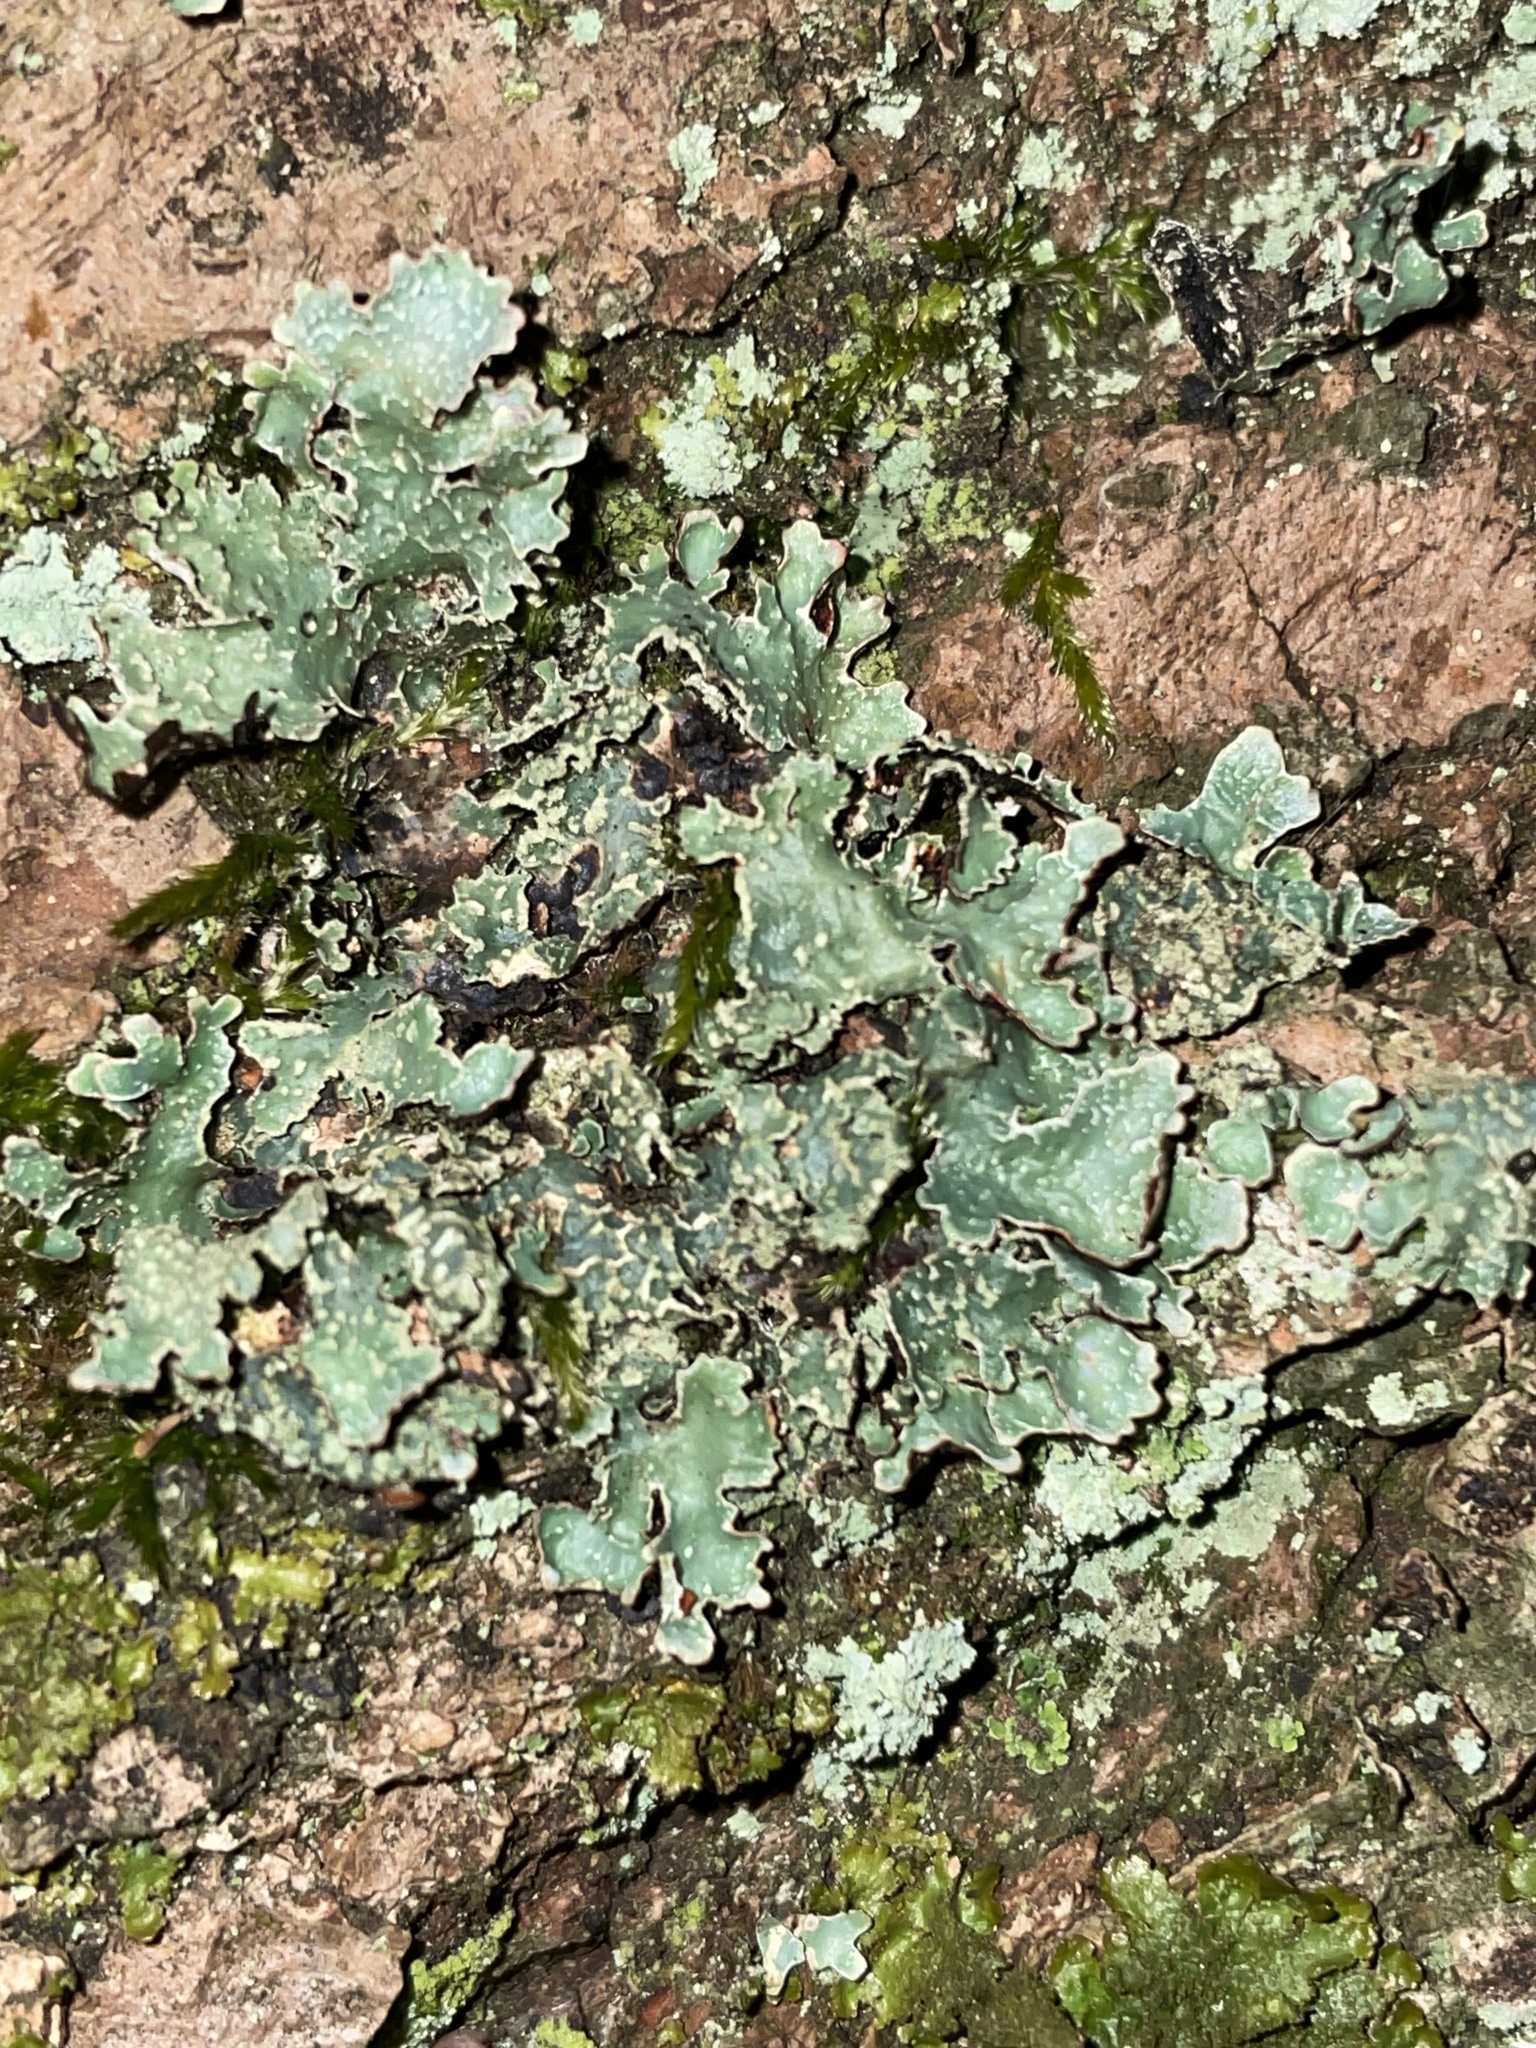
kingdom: Fungi
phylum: Ascomycota
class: Lecanoromycetes
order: Lecanorales
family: Parmeliaceae
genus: Parmelia
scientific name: Parmelia sulcata
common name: Netted shield lichen
